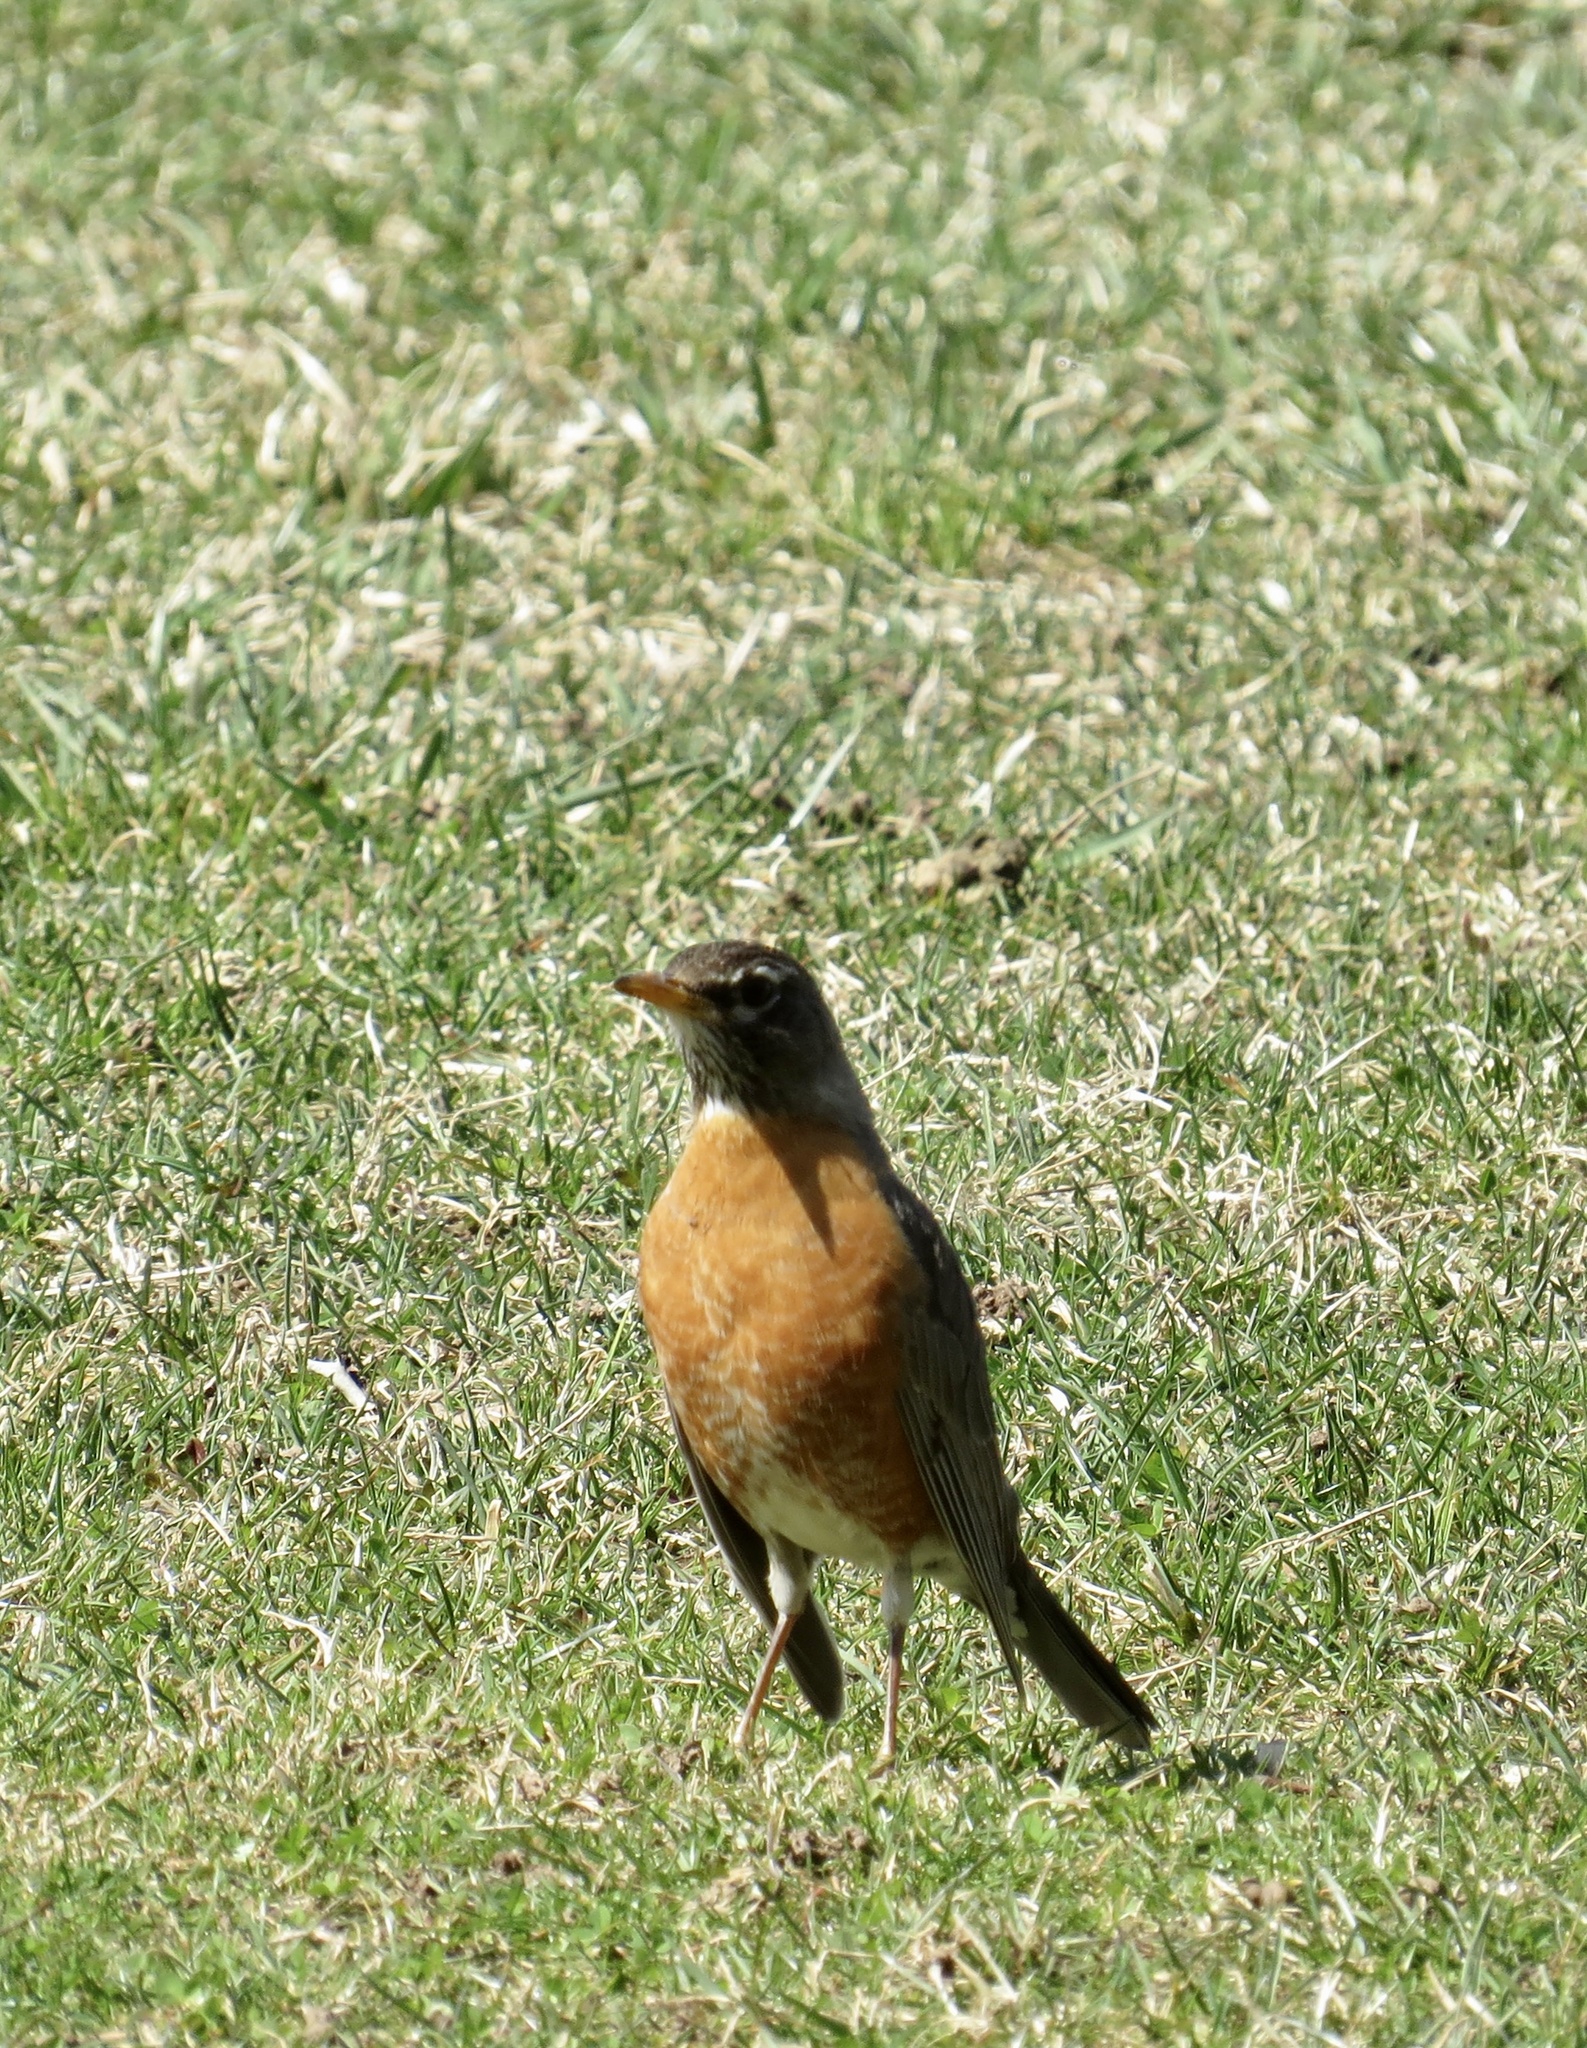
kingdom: Animalia
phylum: Chordata
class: Aves
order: Passeriformes
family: Turdidae
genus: Turdus
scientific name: Turdus migratorius
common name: American robin
